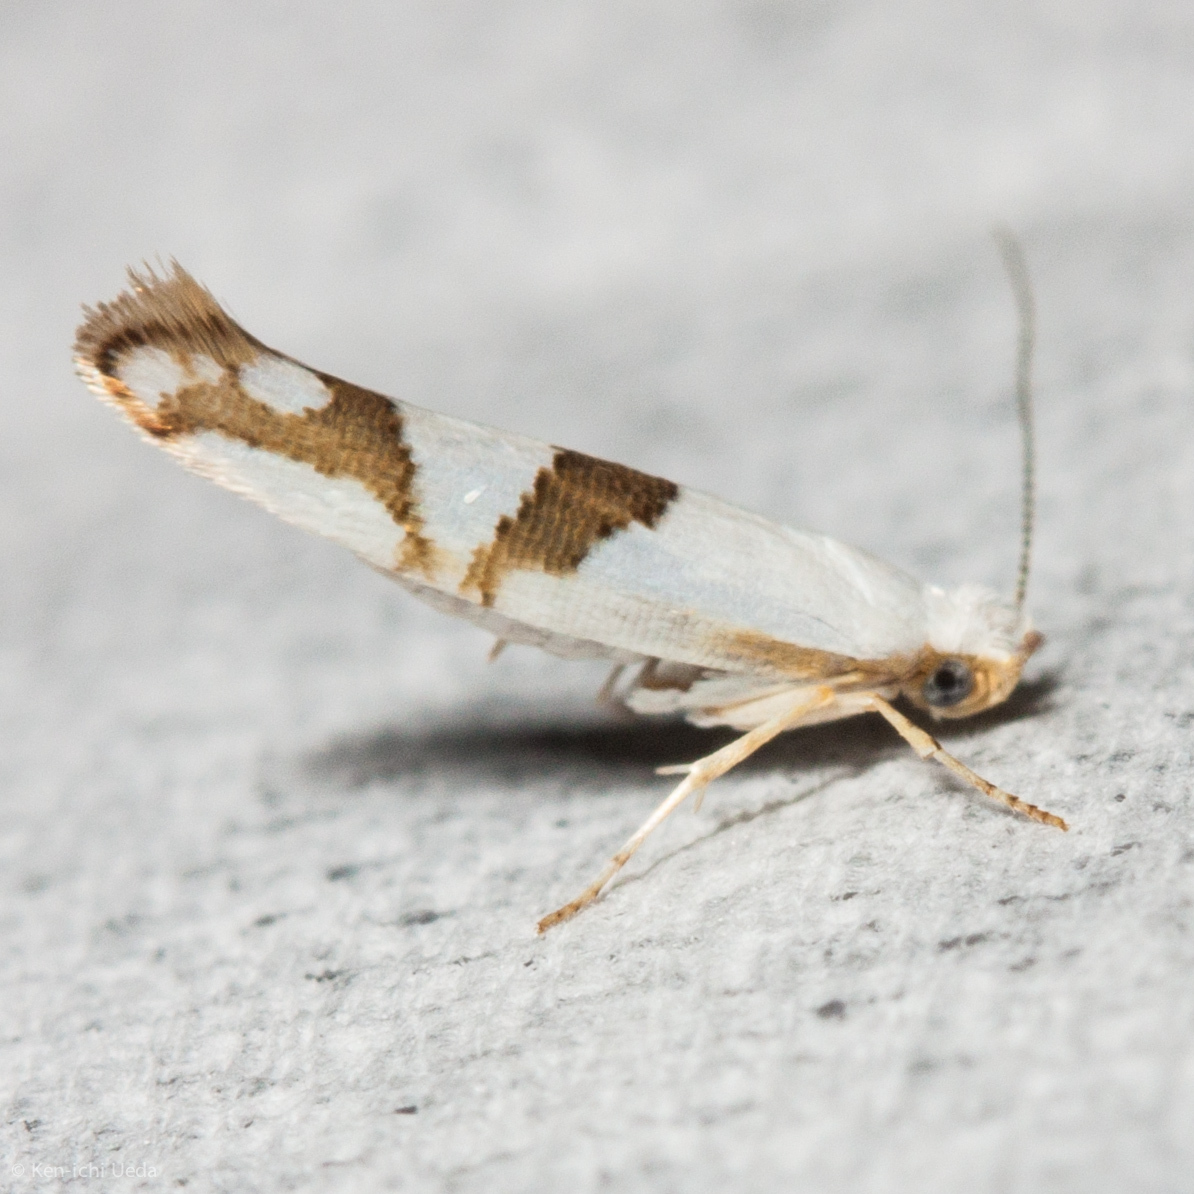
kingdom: Animalia
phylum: Arthropoda
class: Insecta
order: Lepidoptera
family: Argyresthiidae
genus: Argyresthia
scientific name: Argyresthia oreasella
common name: Cherry shoot borer moth
